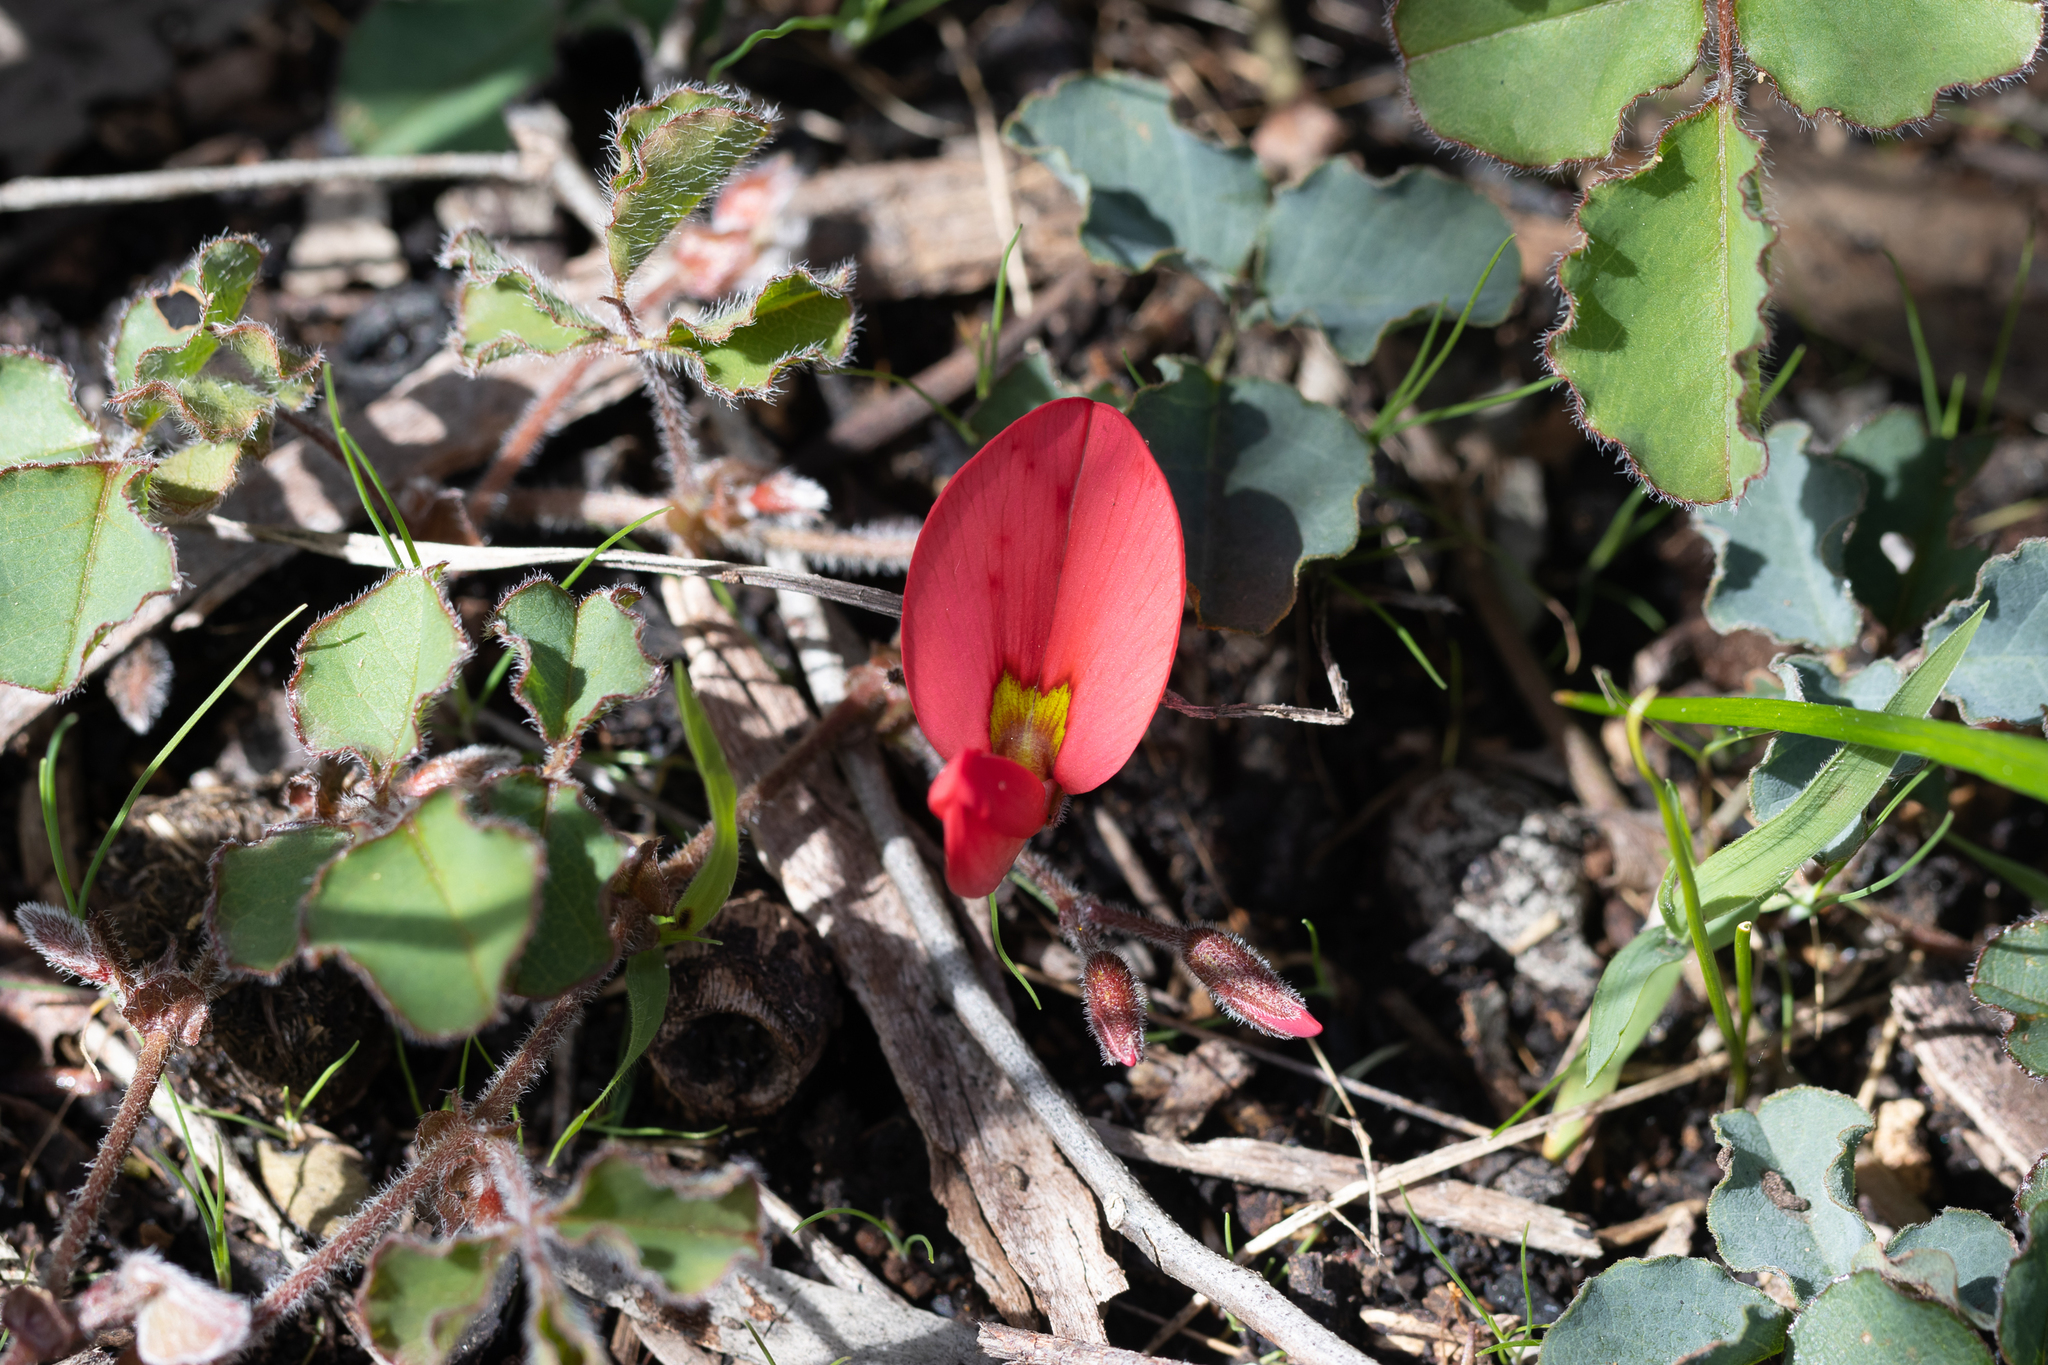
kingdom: Plantae
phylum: Tracheophyta
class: Magnoliopsida
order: Fabales
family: Fabaceae
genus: Kennedia
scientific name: Kennedia prostrata
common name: Running-postman
